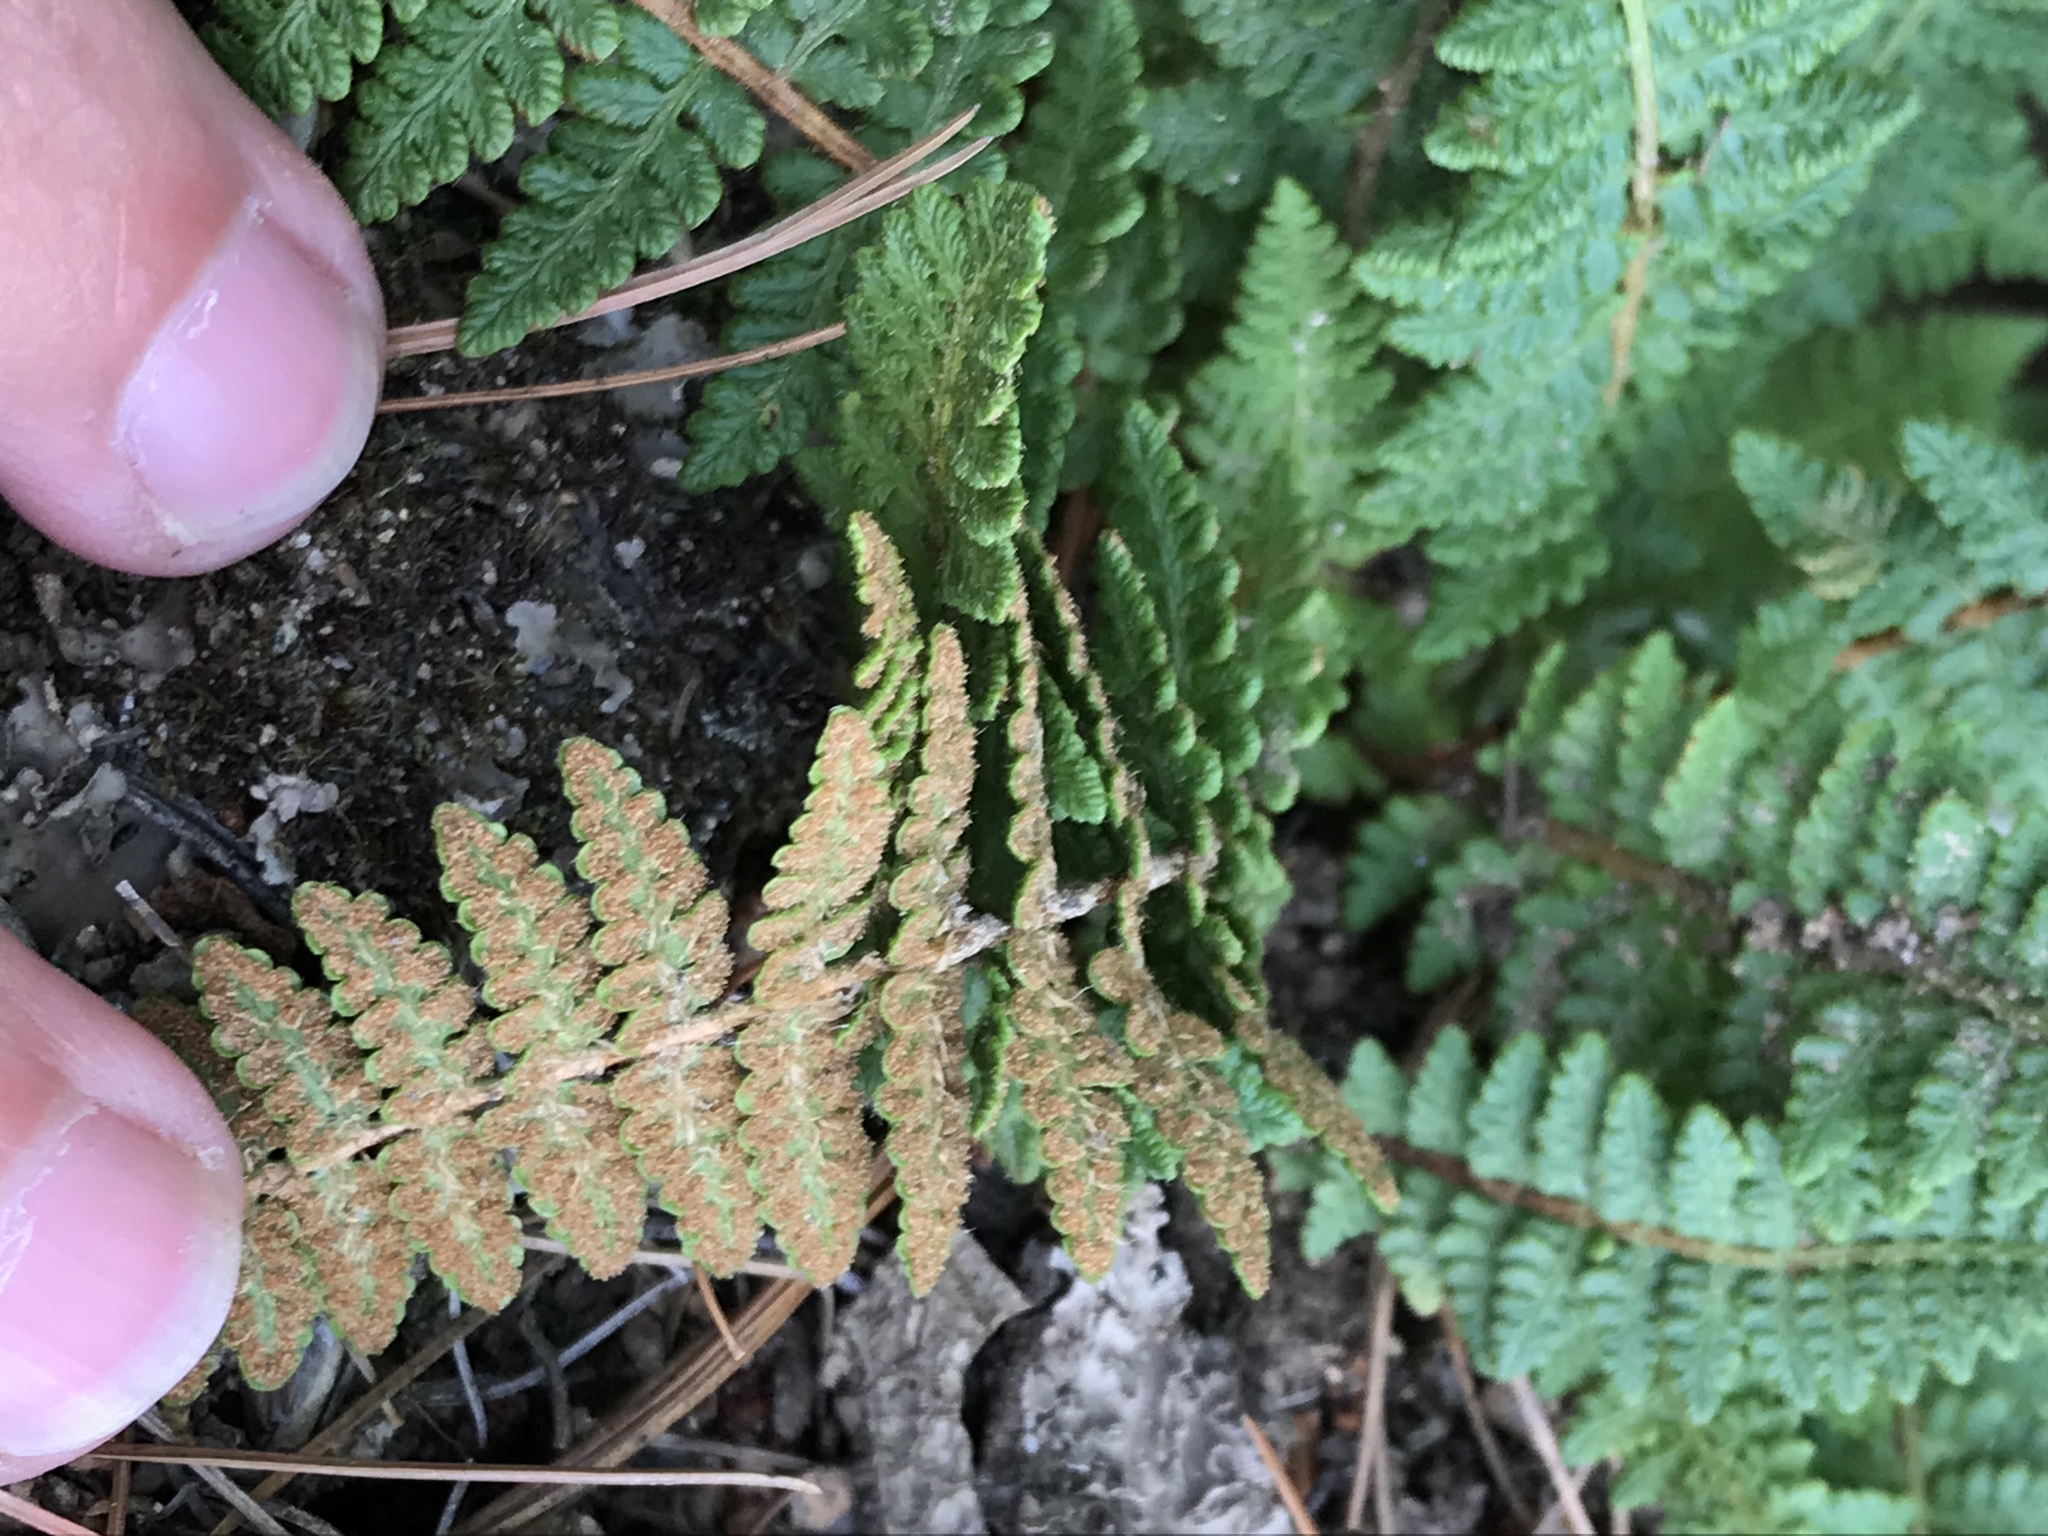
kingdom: Plantae
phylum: Tracheophyta
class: Polypodiopsida
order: Polypodiales
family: Dryopteridaceae
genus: Dryopteris
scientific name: Dryopteris fragrans
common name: Fragrant wood fern
